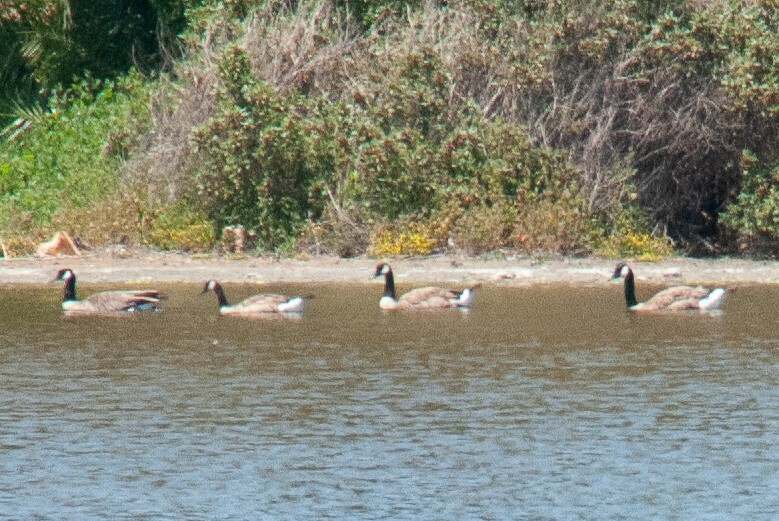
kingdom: Animalia
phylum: Chordata
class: Aves
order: Anseriformes
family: Anatidae
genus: Branta
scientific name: Branta canadensis
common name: Canada goose
